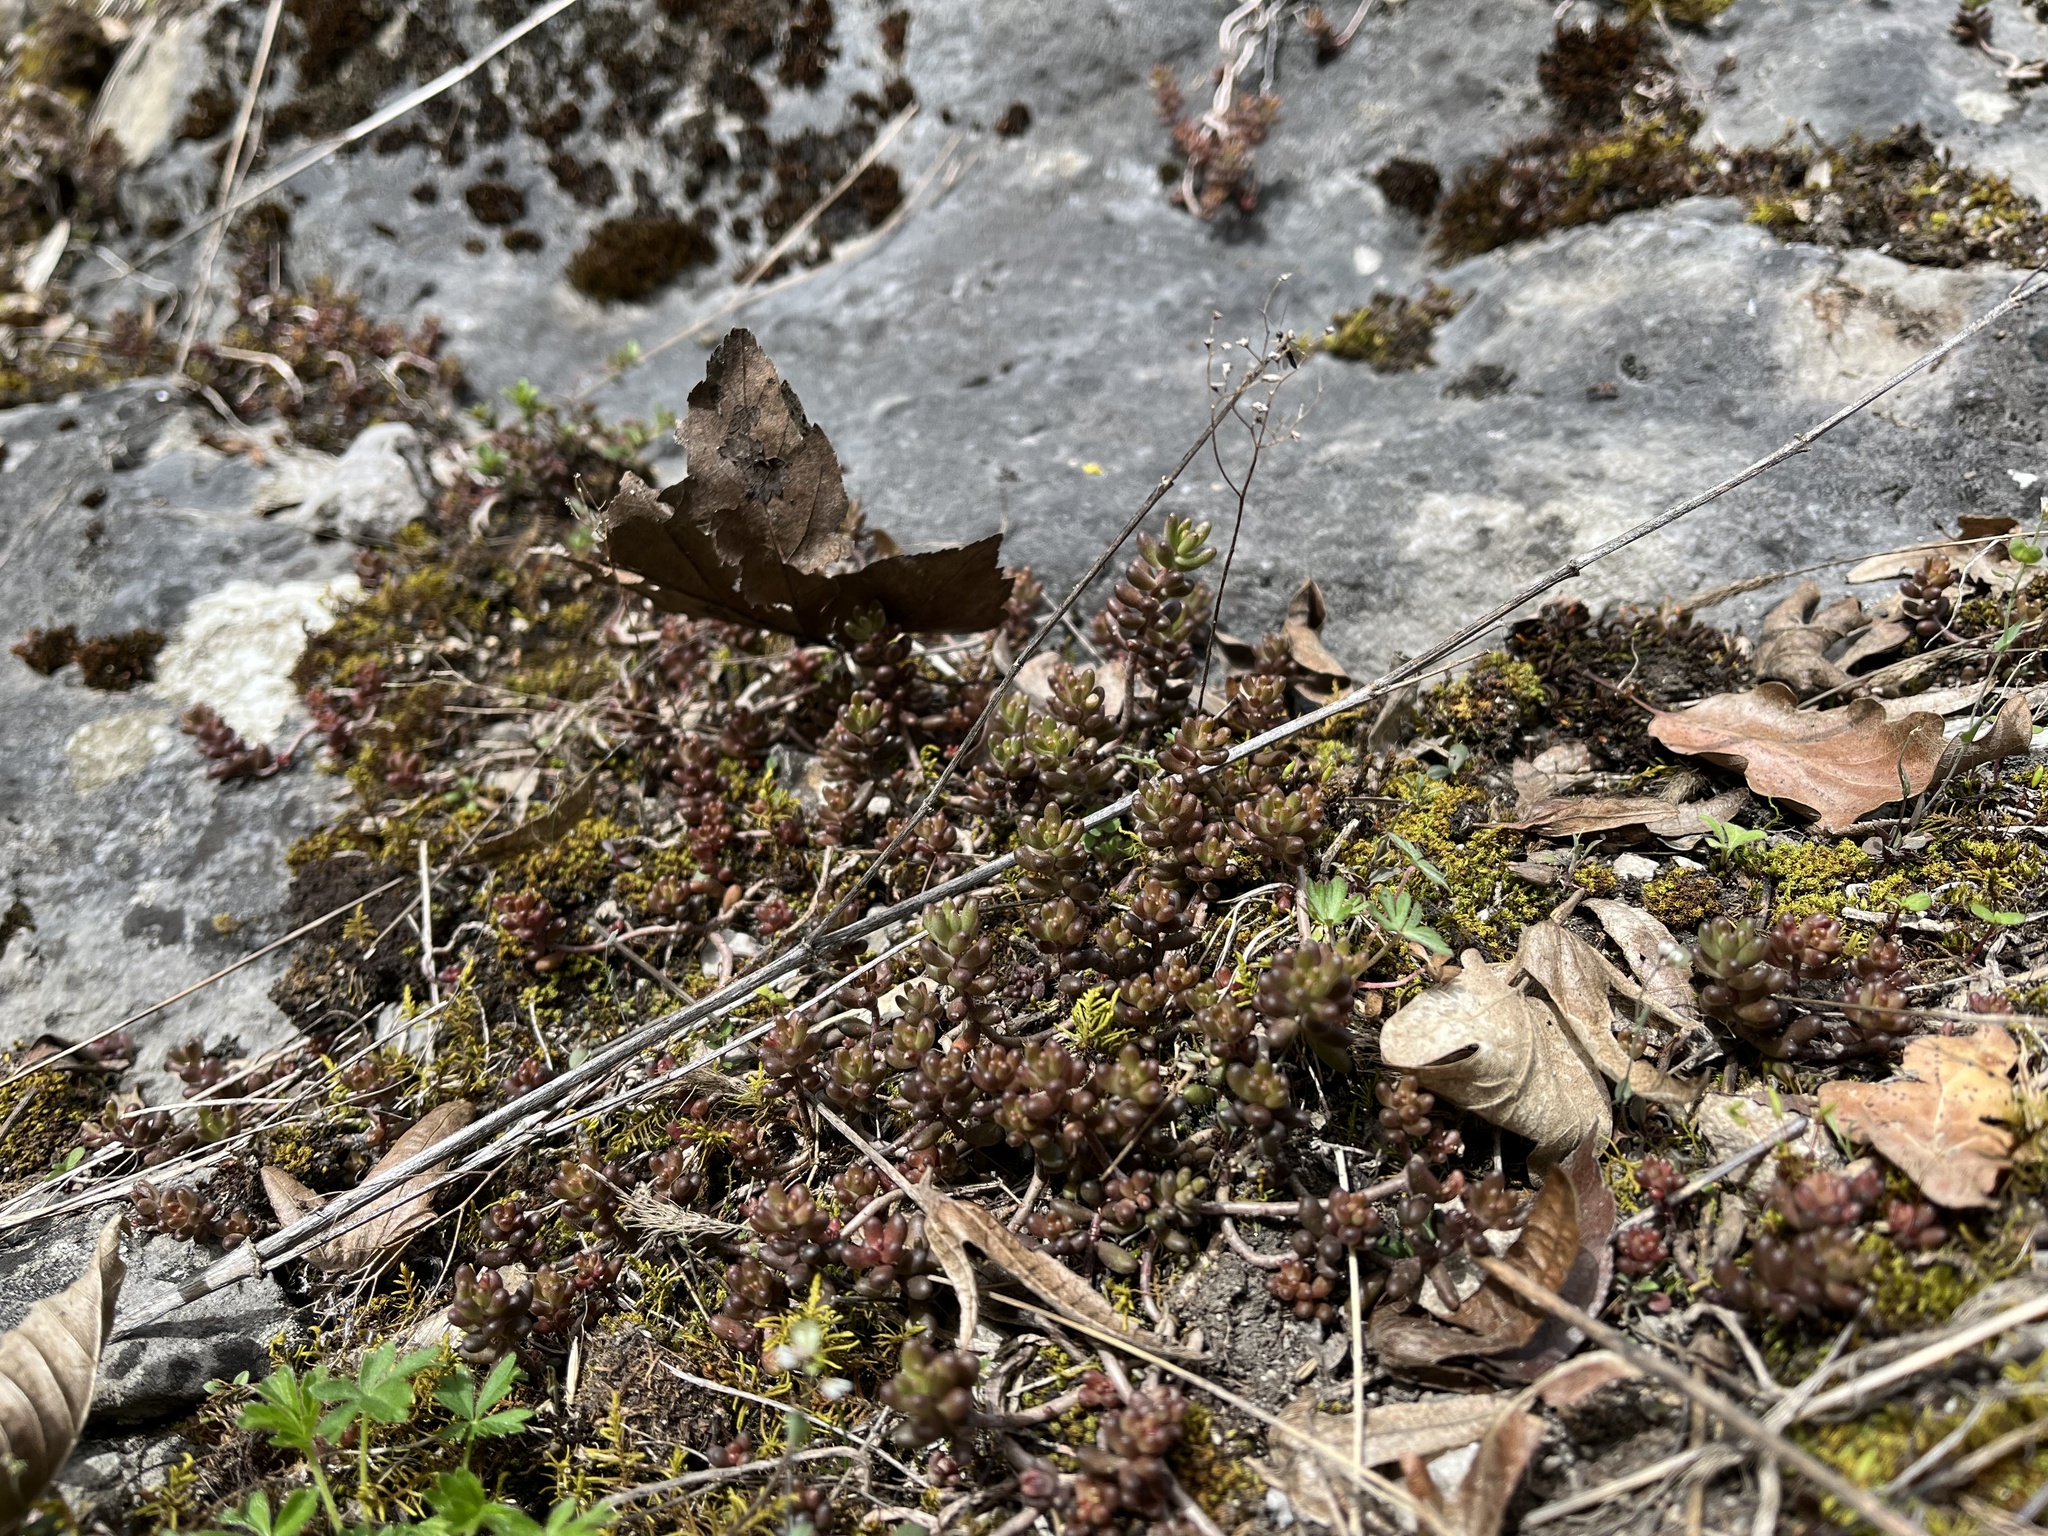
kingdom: Plantae
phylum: Tracheophyta
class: Magnoliopsida
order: Saxifragales
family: Crassulaceae
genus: Sedum
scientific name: Sedum album
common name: White stonecrop
